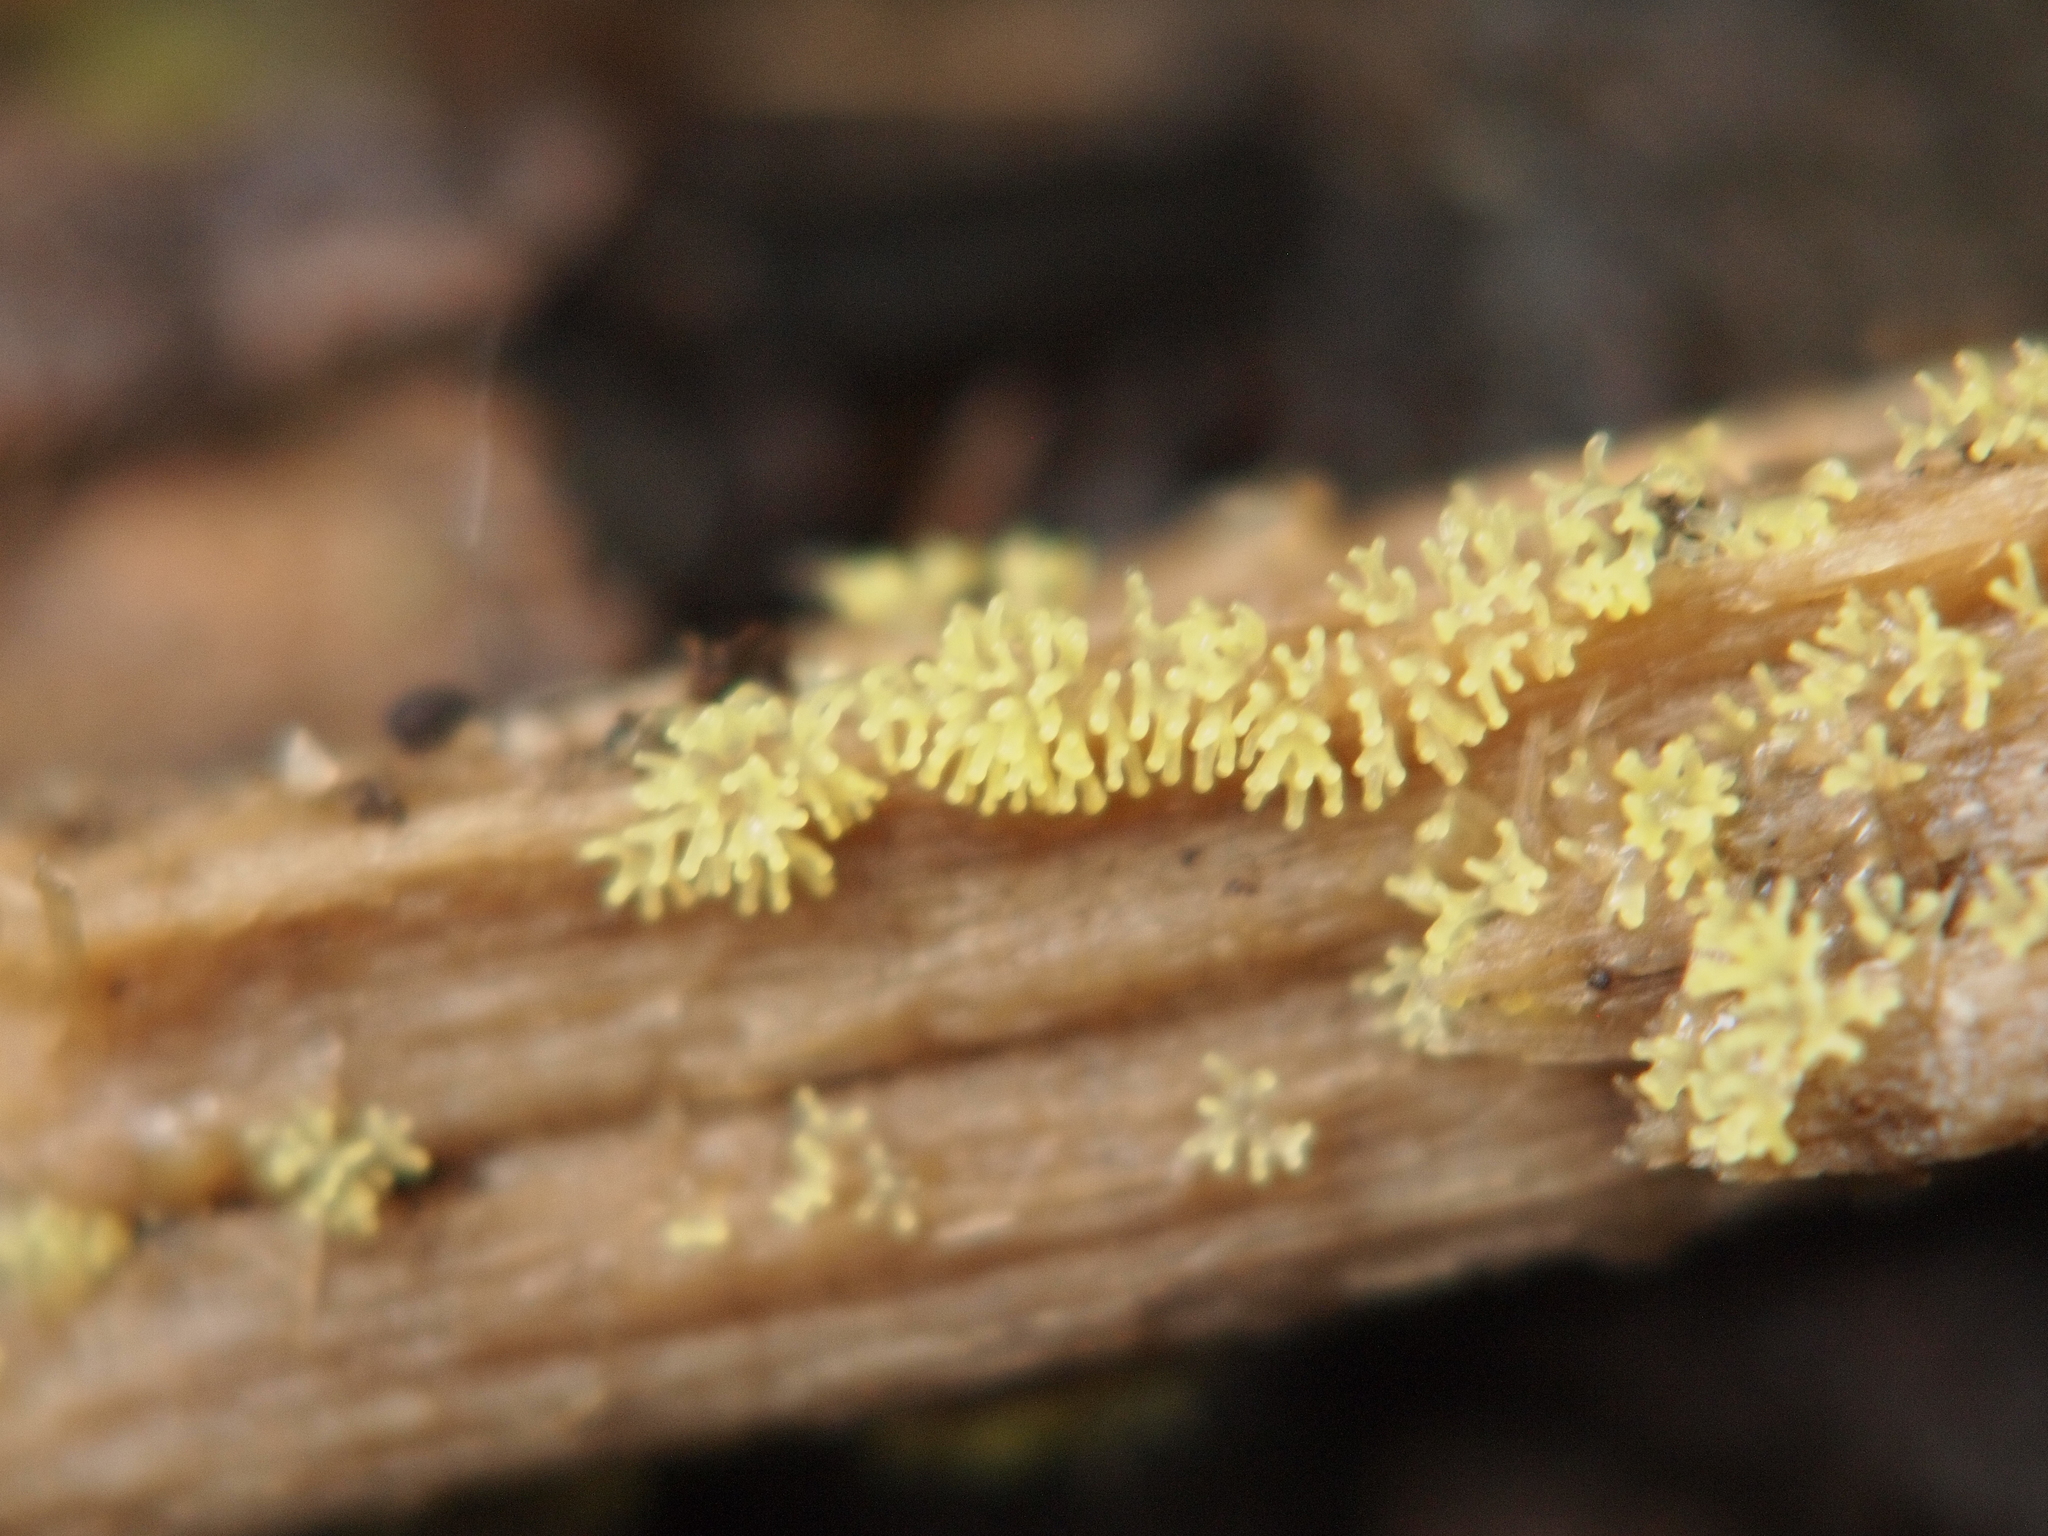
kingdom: Protozoa
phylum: Mycetozoa
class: Protosteliomycetes
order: Ceratiomyxales
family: Ceratiomyxaceae
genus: Ceratiomyxa
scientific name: Ceratiomyxa fruticulosa
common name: Honeycomb coral slime mold
